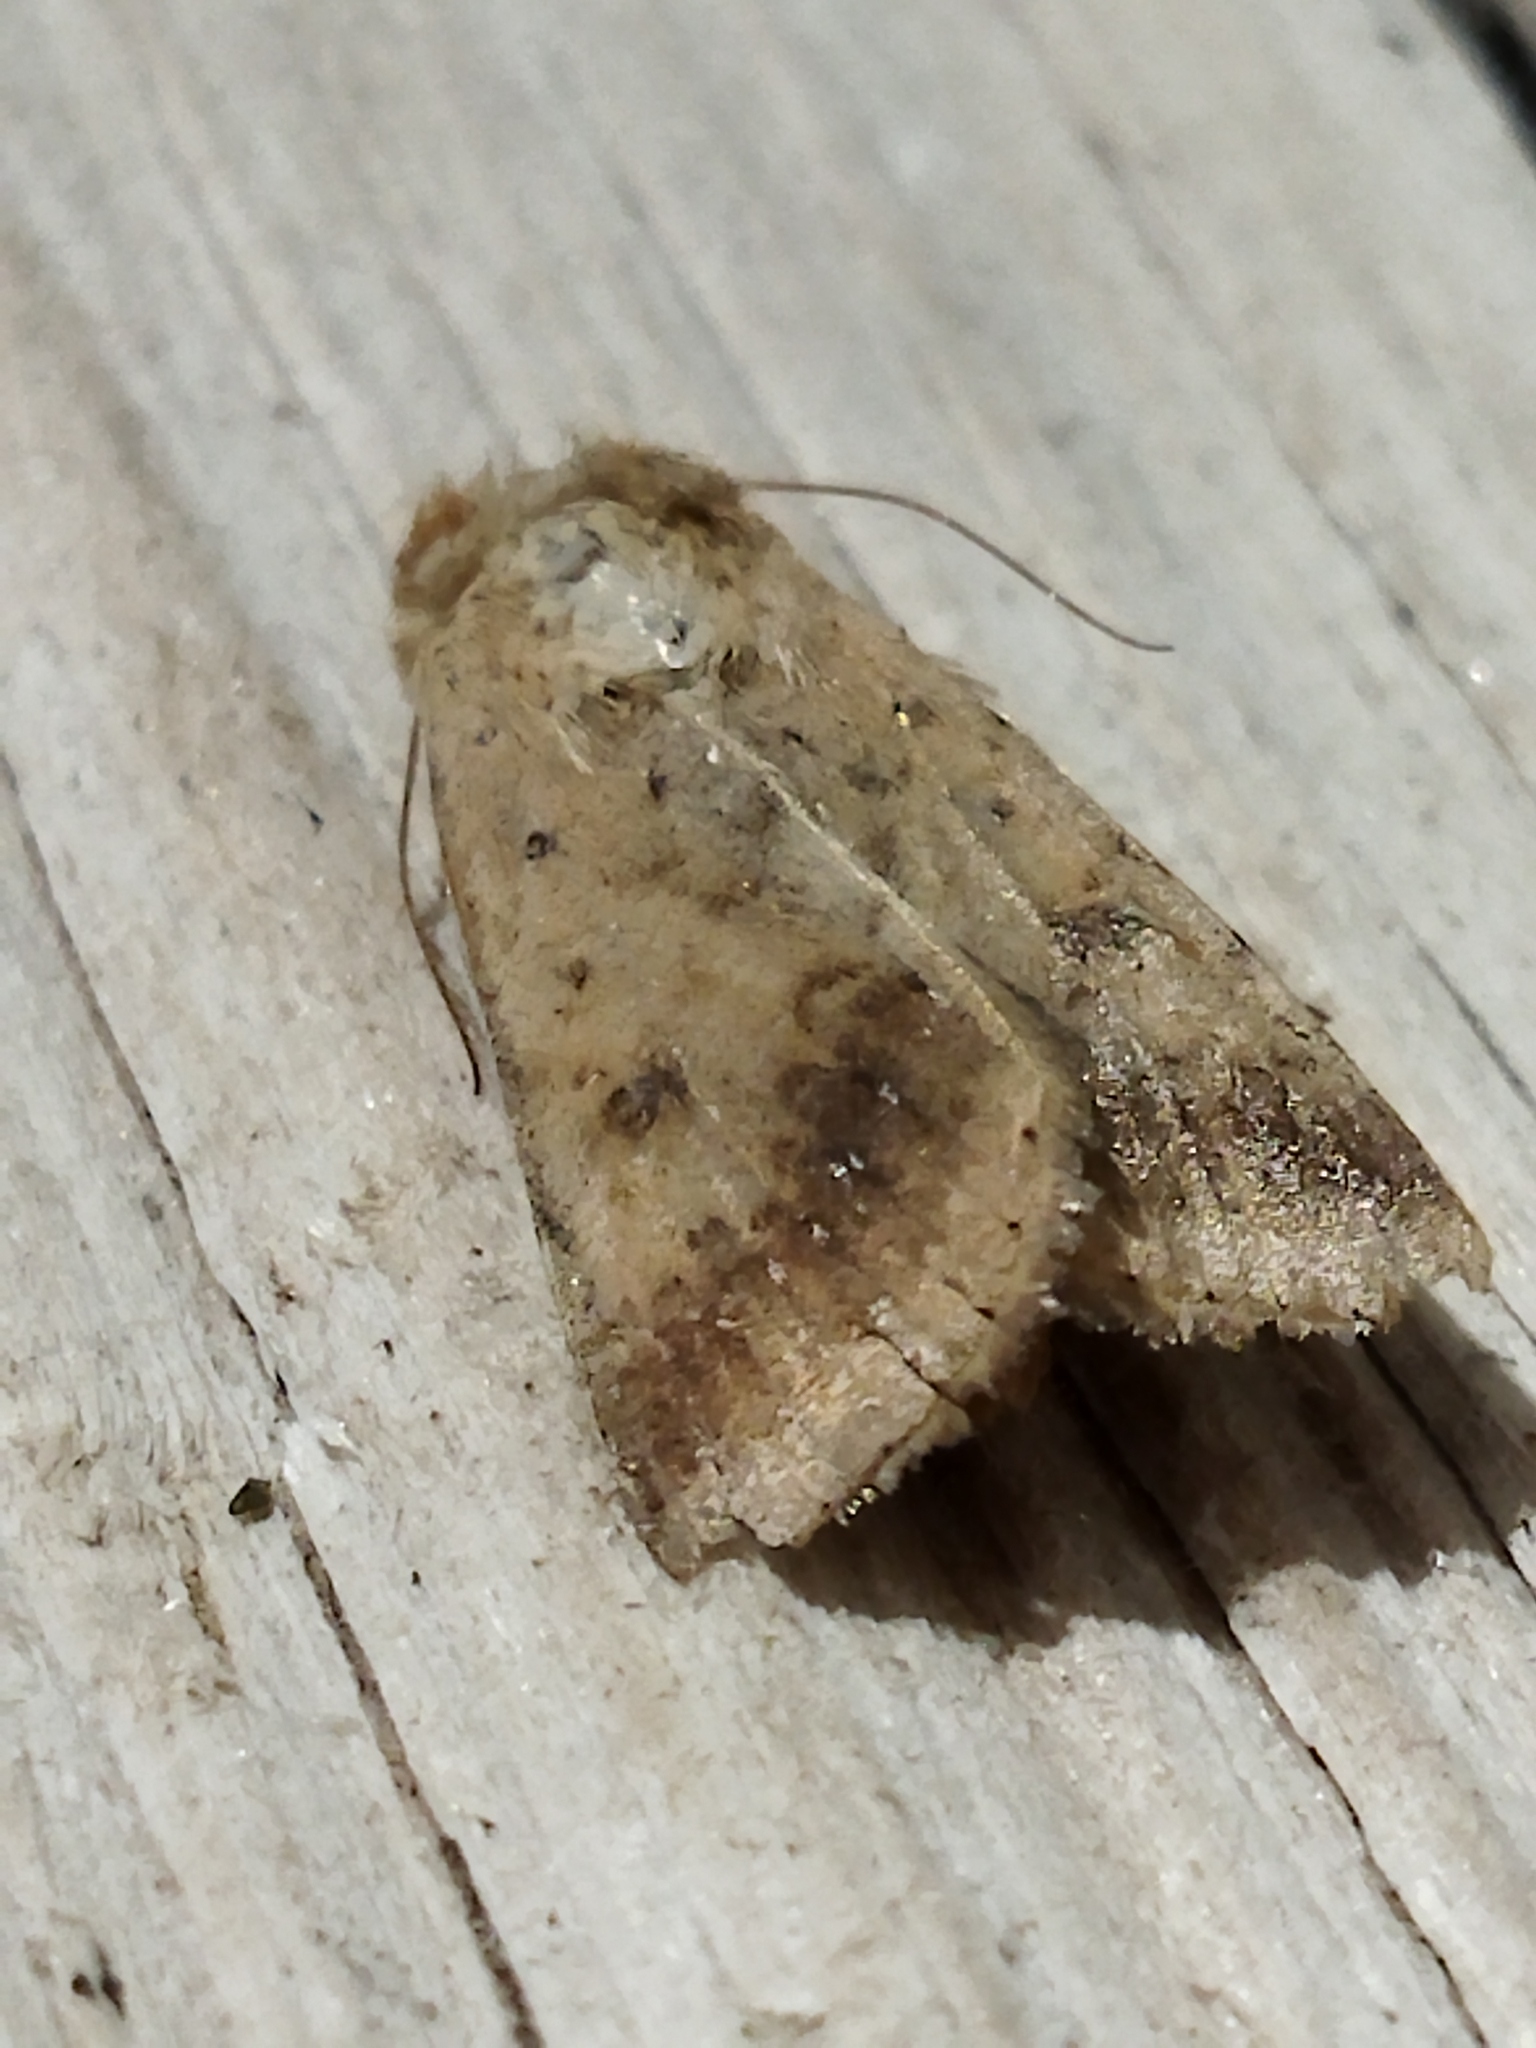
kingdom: Animalia
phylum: Arthropoda
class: Insecta
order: Lepidoptera
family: Noctuidae
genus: Helicoverpa
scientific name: Helicoverpa armigera
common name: Cotton bollworm
